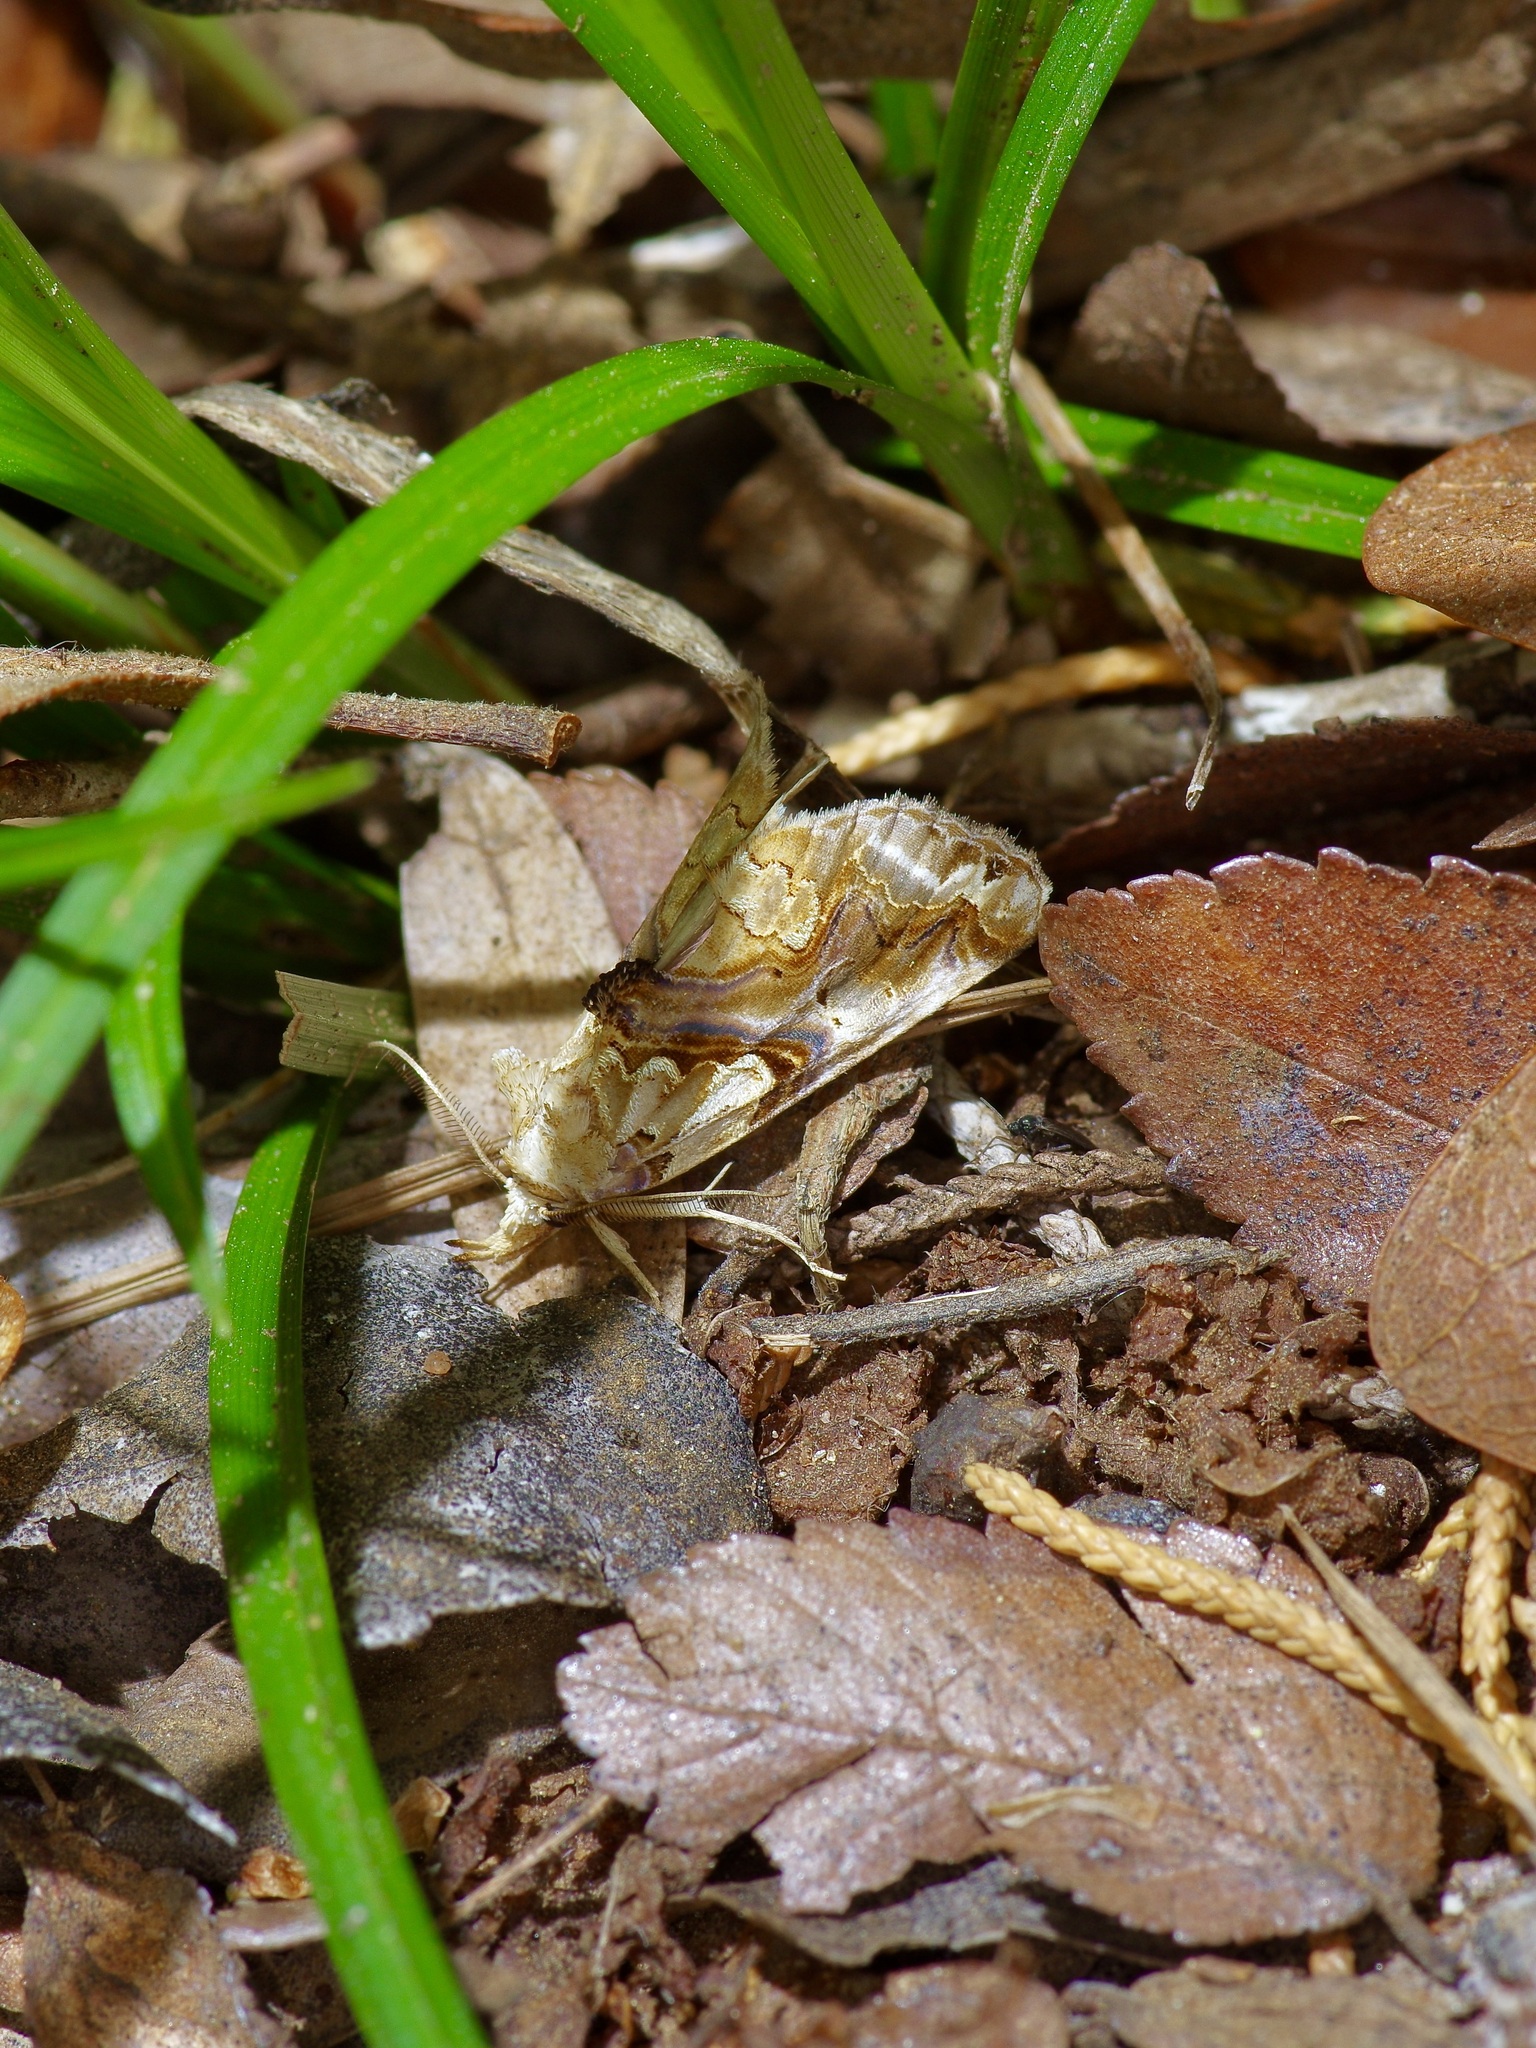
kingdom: Animalia
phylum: Arthropoda
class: Insecta
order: Lepidoptera
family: Erebidae
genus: Plusiodonta
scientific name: Plusiodonta compressipalpis
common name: Moonseed moth
